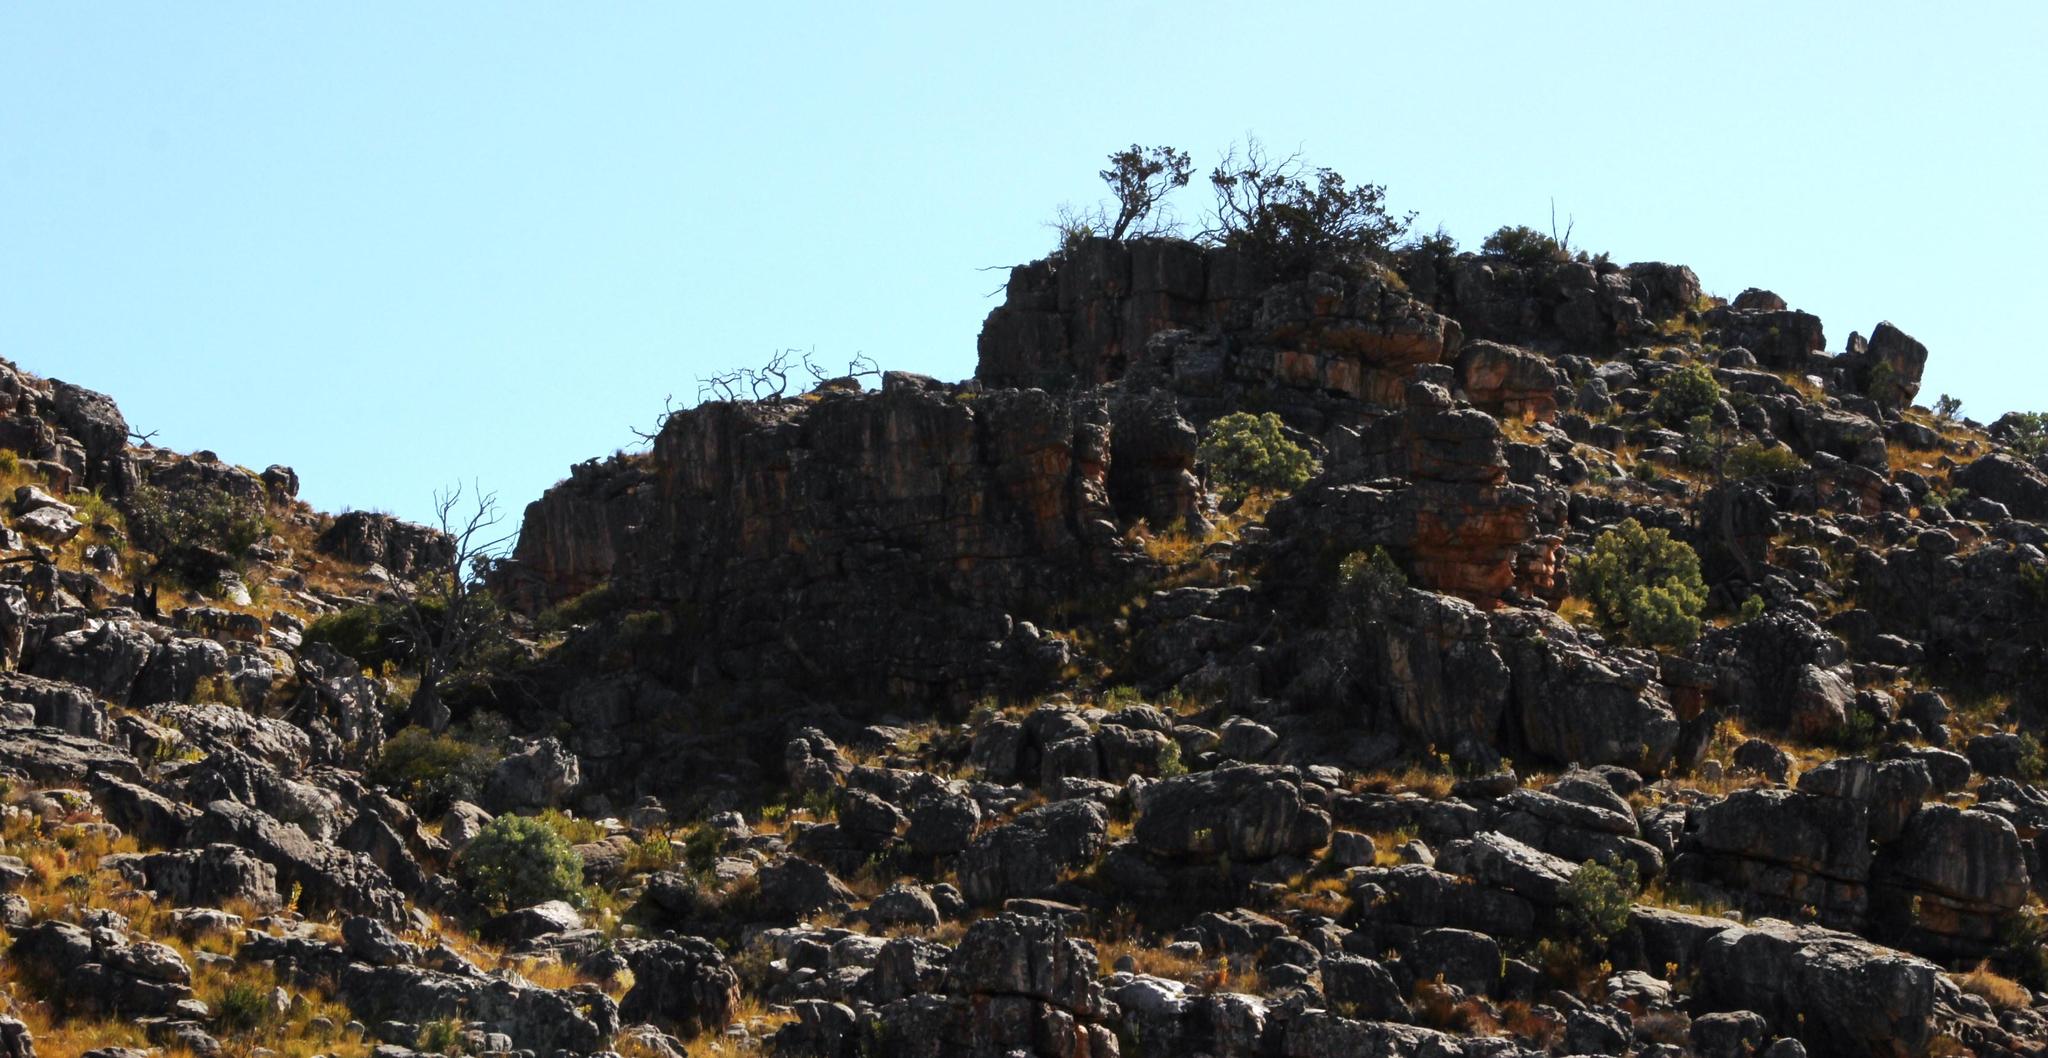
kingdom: Plantae
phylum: Tracheophyta
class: Pinopsida
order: Pinales
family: Cupressaceae
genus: Widdringtonia
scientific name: Widdringtonia nodiflora
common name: Cape cypress
